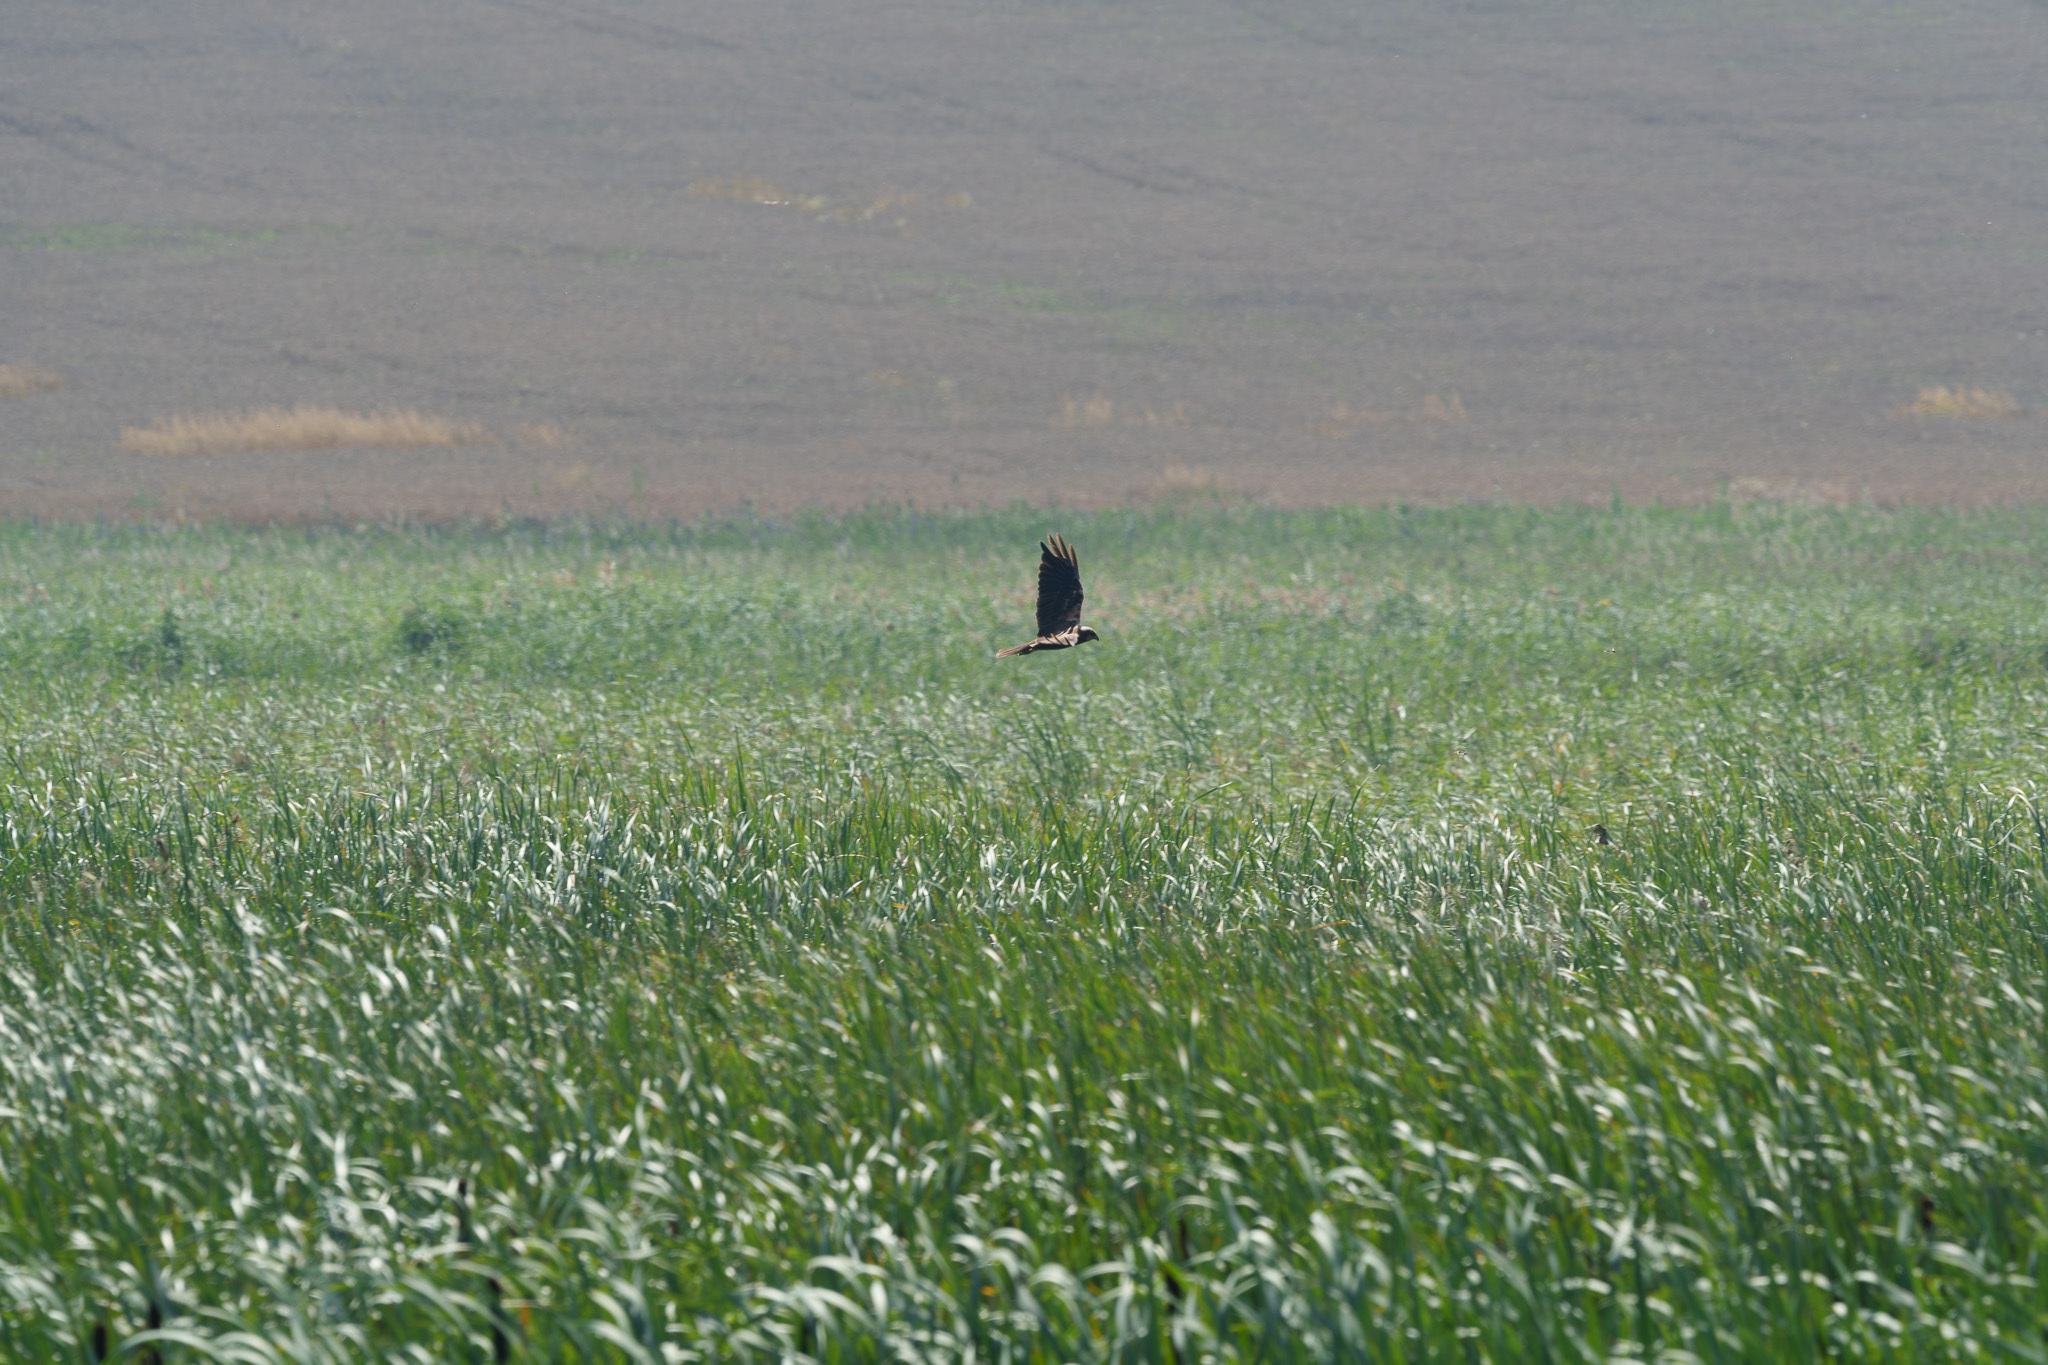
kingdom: Animalia
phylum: Chordata
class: Aves
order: Accipitriformes
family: Accipitridae
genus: Circus
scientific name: Circus aeruginosus
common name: Western marsh harrier
